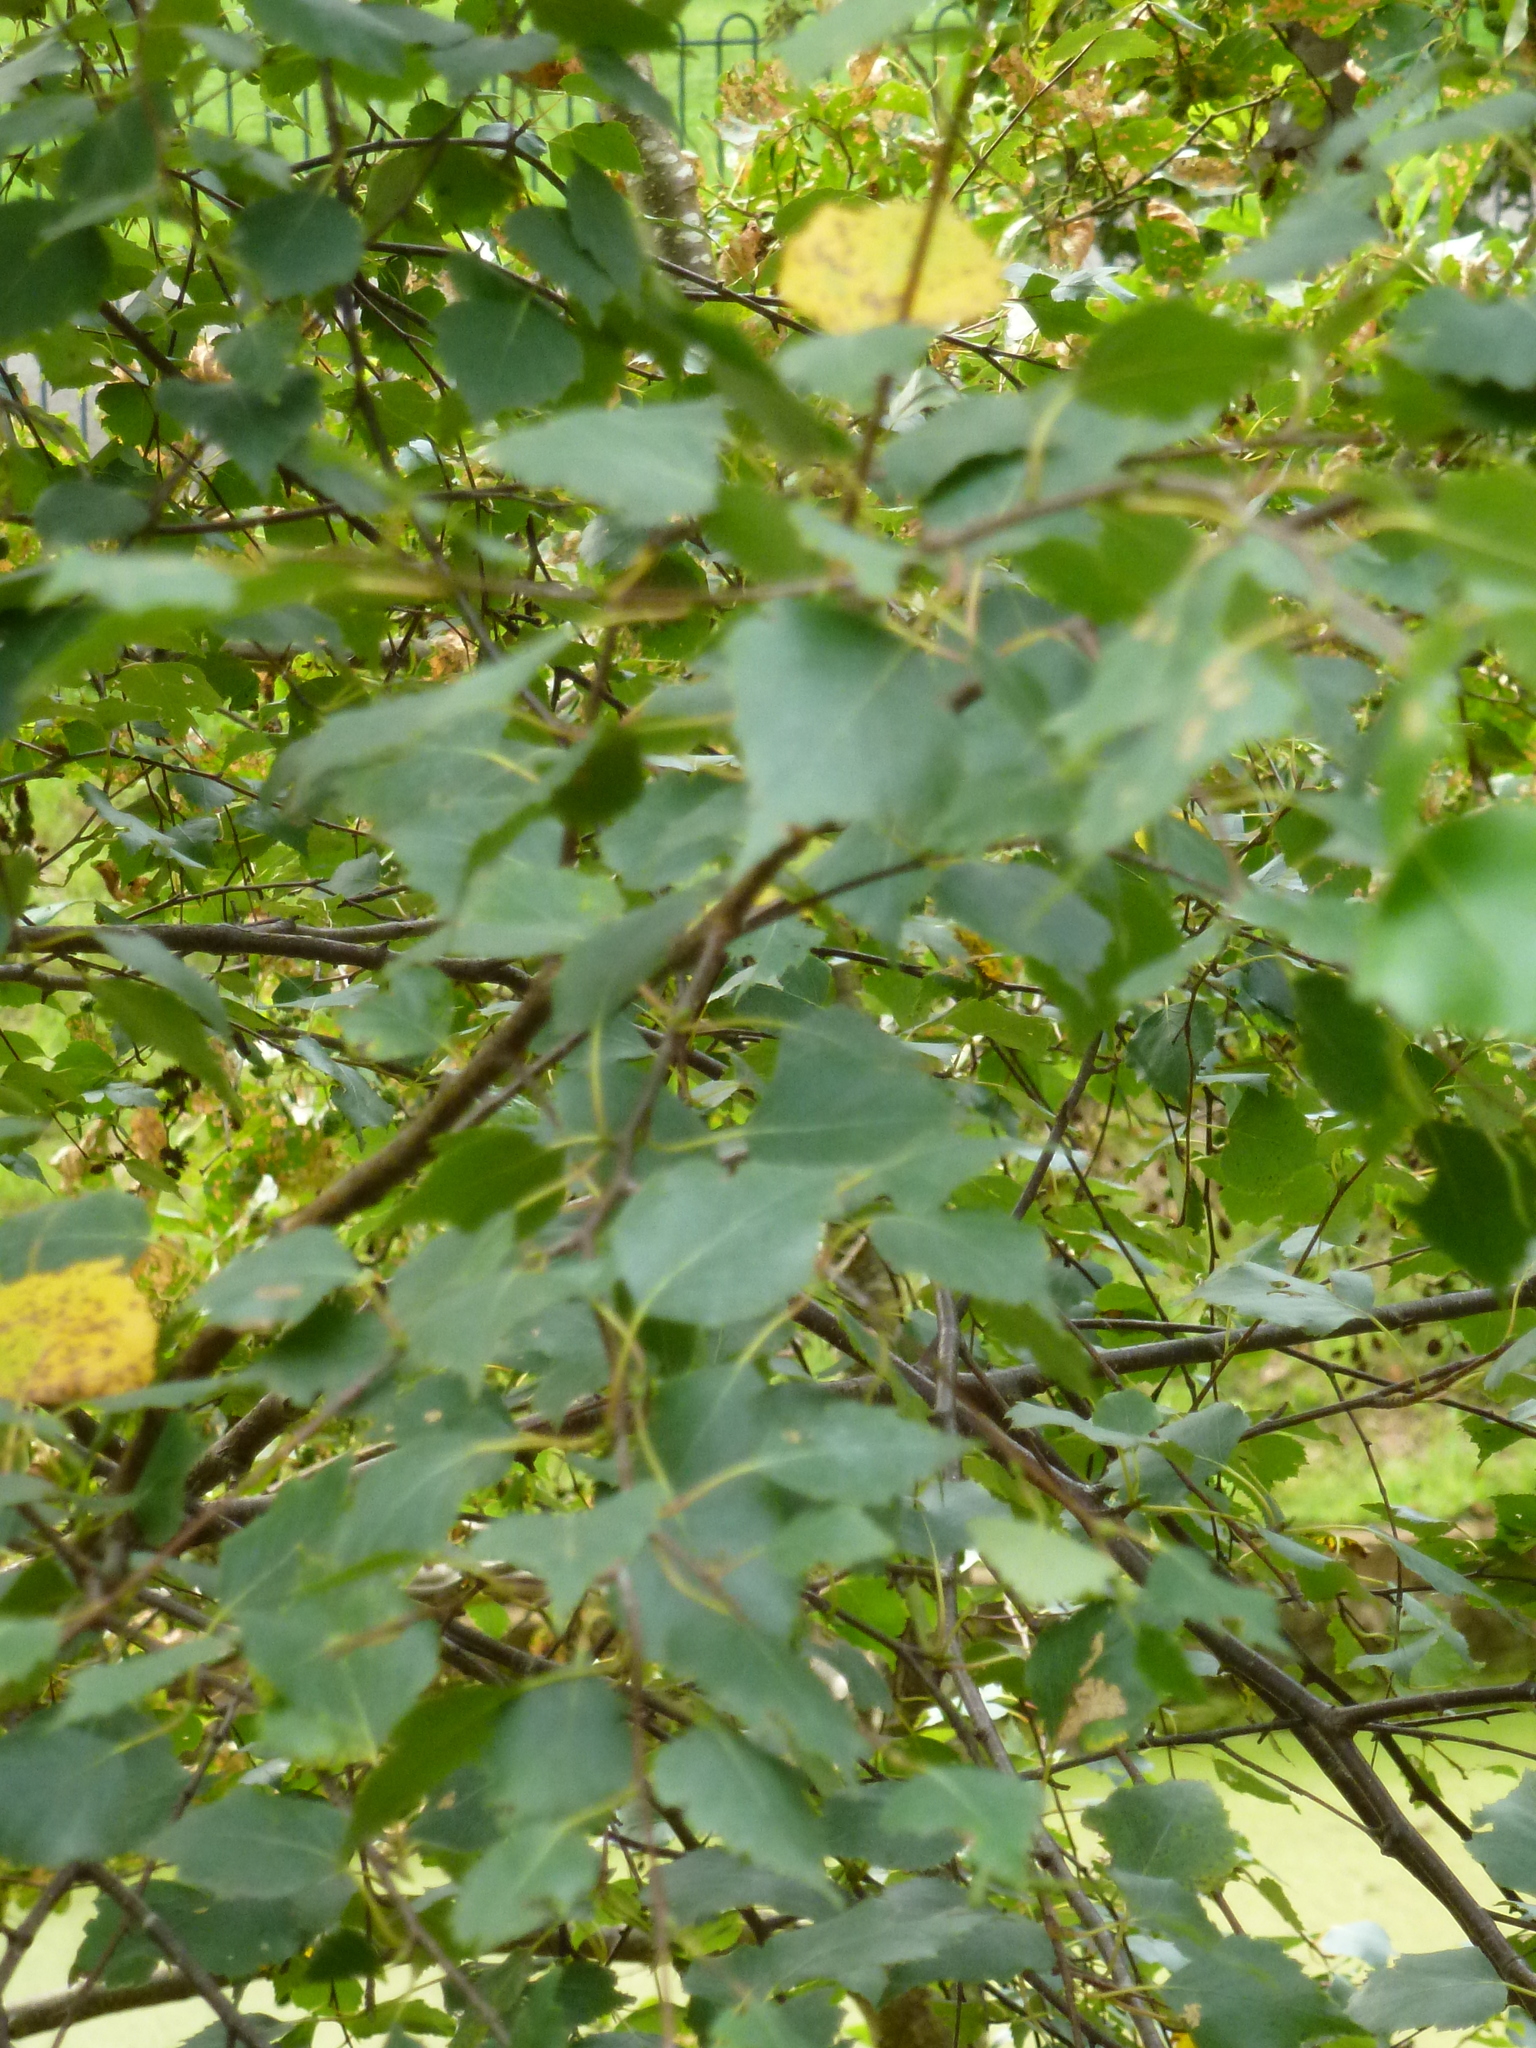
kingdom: Plantae
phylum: Tracheophyta
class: Magnoliopsida
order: Fagales
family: Betulaceae
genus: Betula
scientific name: Betula pendula
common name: Silver birch
